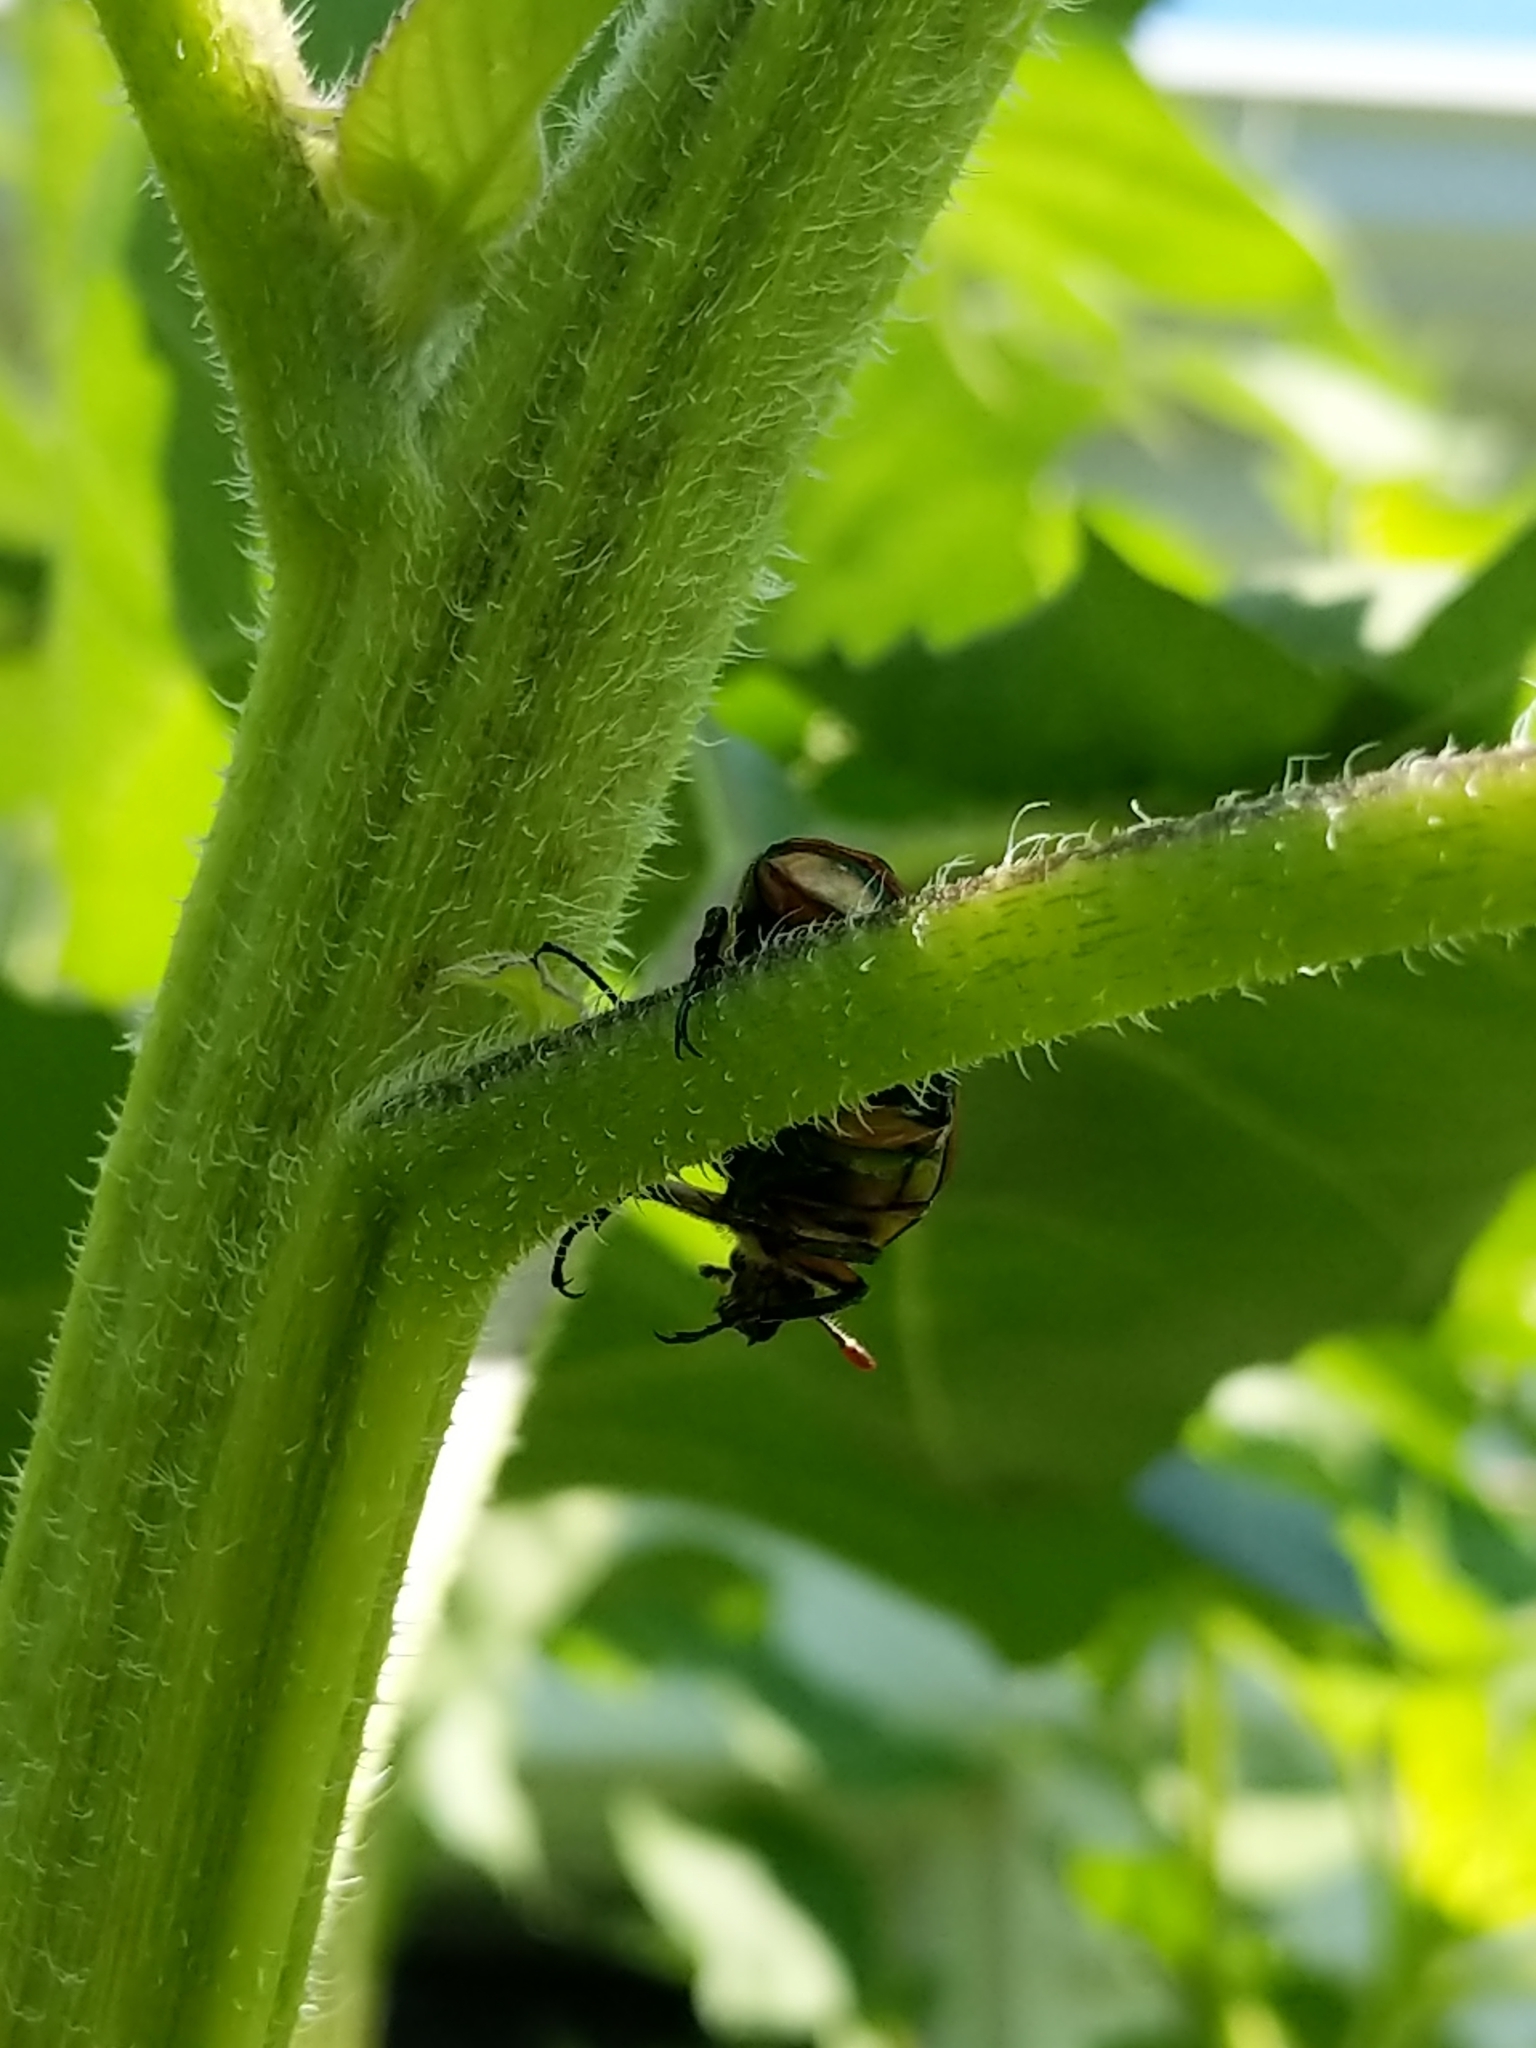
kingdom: Animalia
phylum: Arthropoda
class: Insecta
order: Coleoptera
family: Scarabaeidae
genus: Cotinis
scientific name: Cotinis nitida
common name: Common green june beetle
